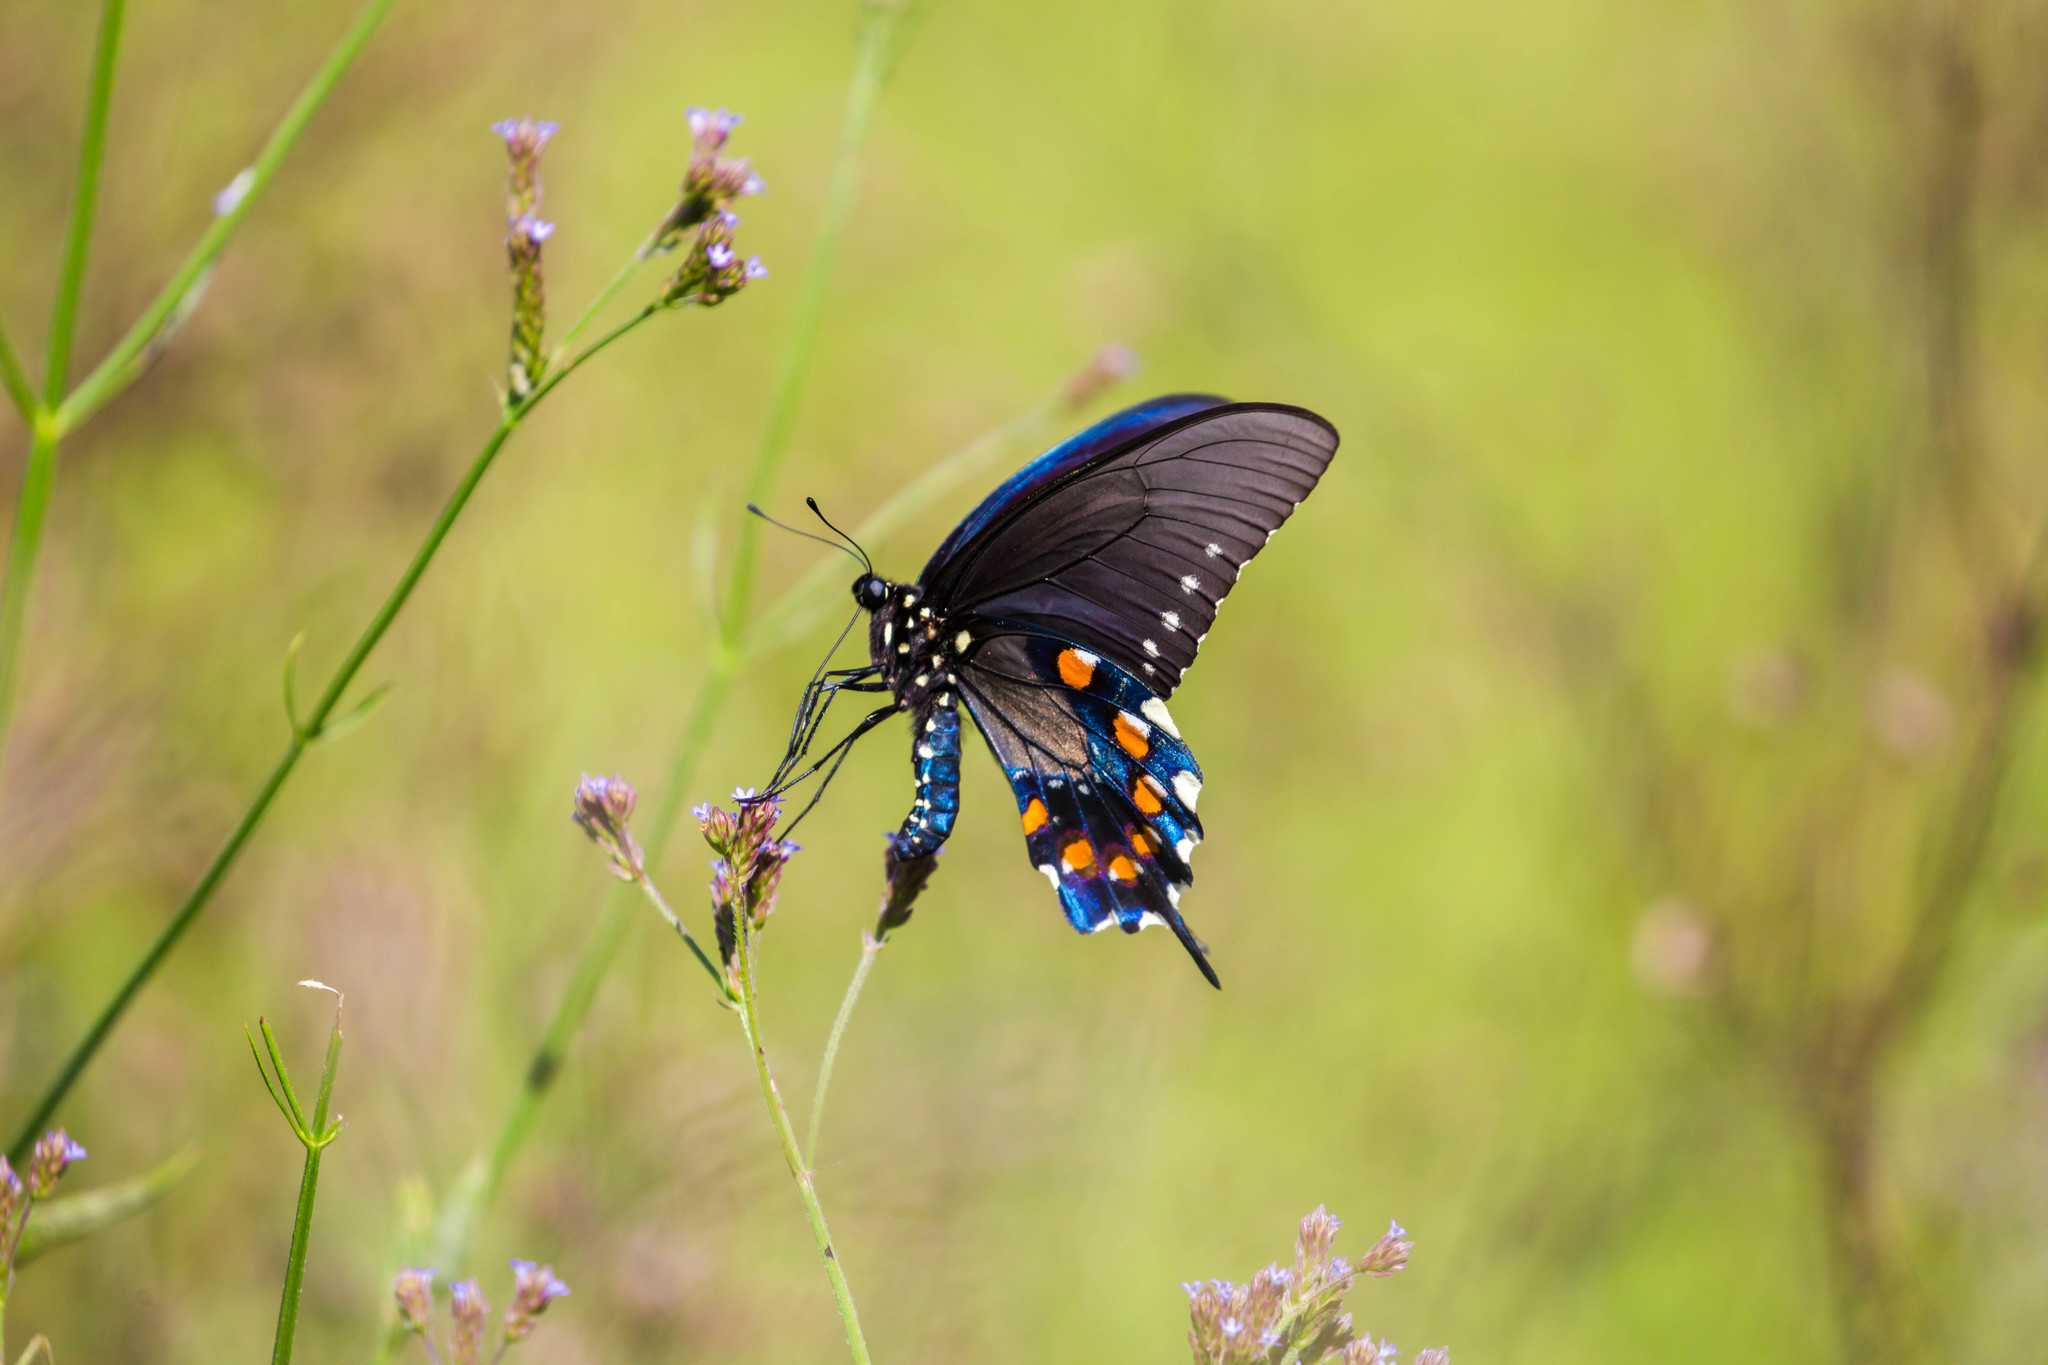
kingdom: Animalia
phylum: Arthropoda
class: Insecta
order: Lepidoptera
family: Papilionidae
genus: Battus
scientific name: Battus philenor
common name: Pipevine swallowtail
